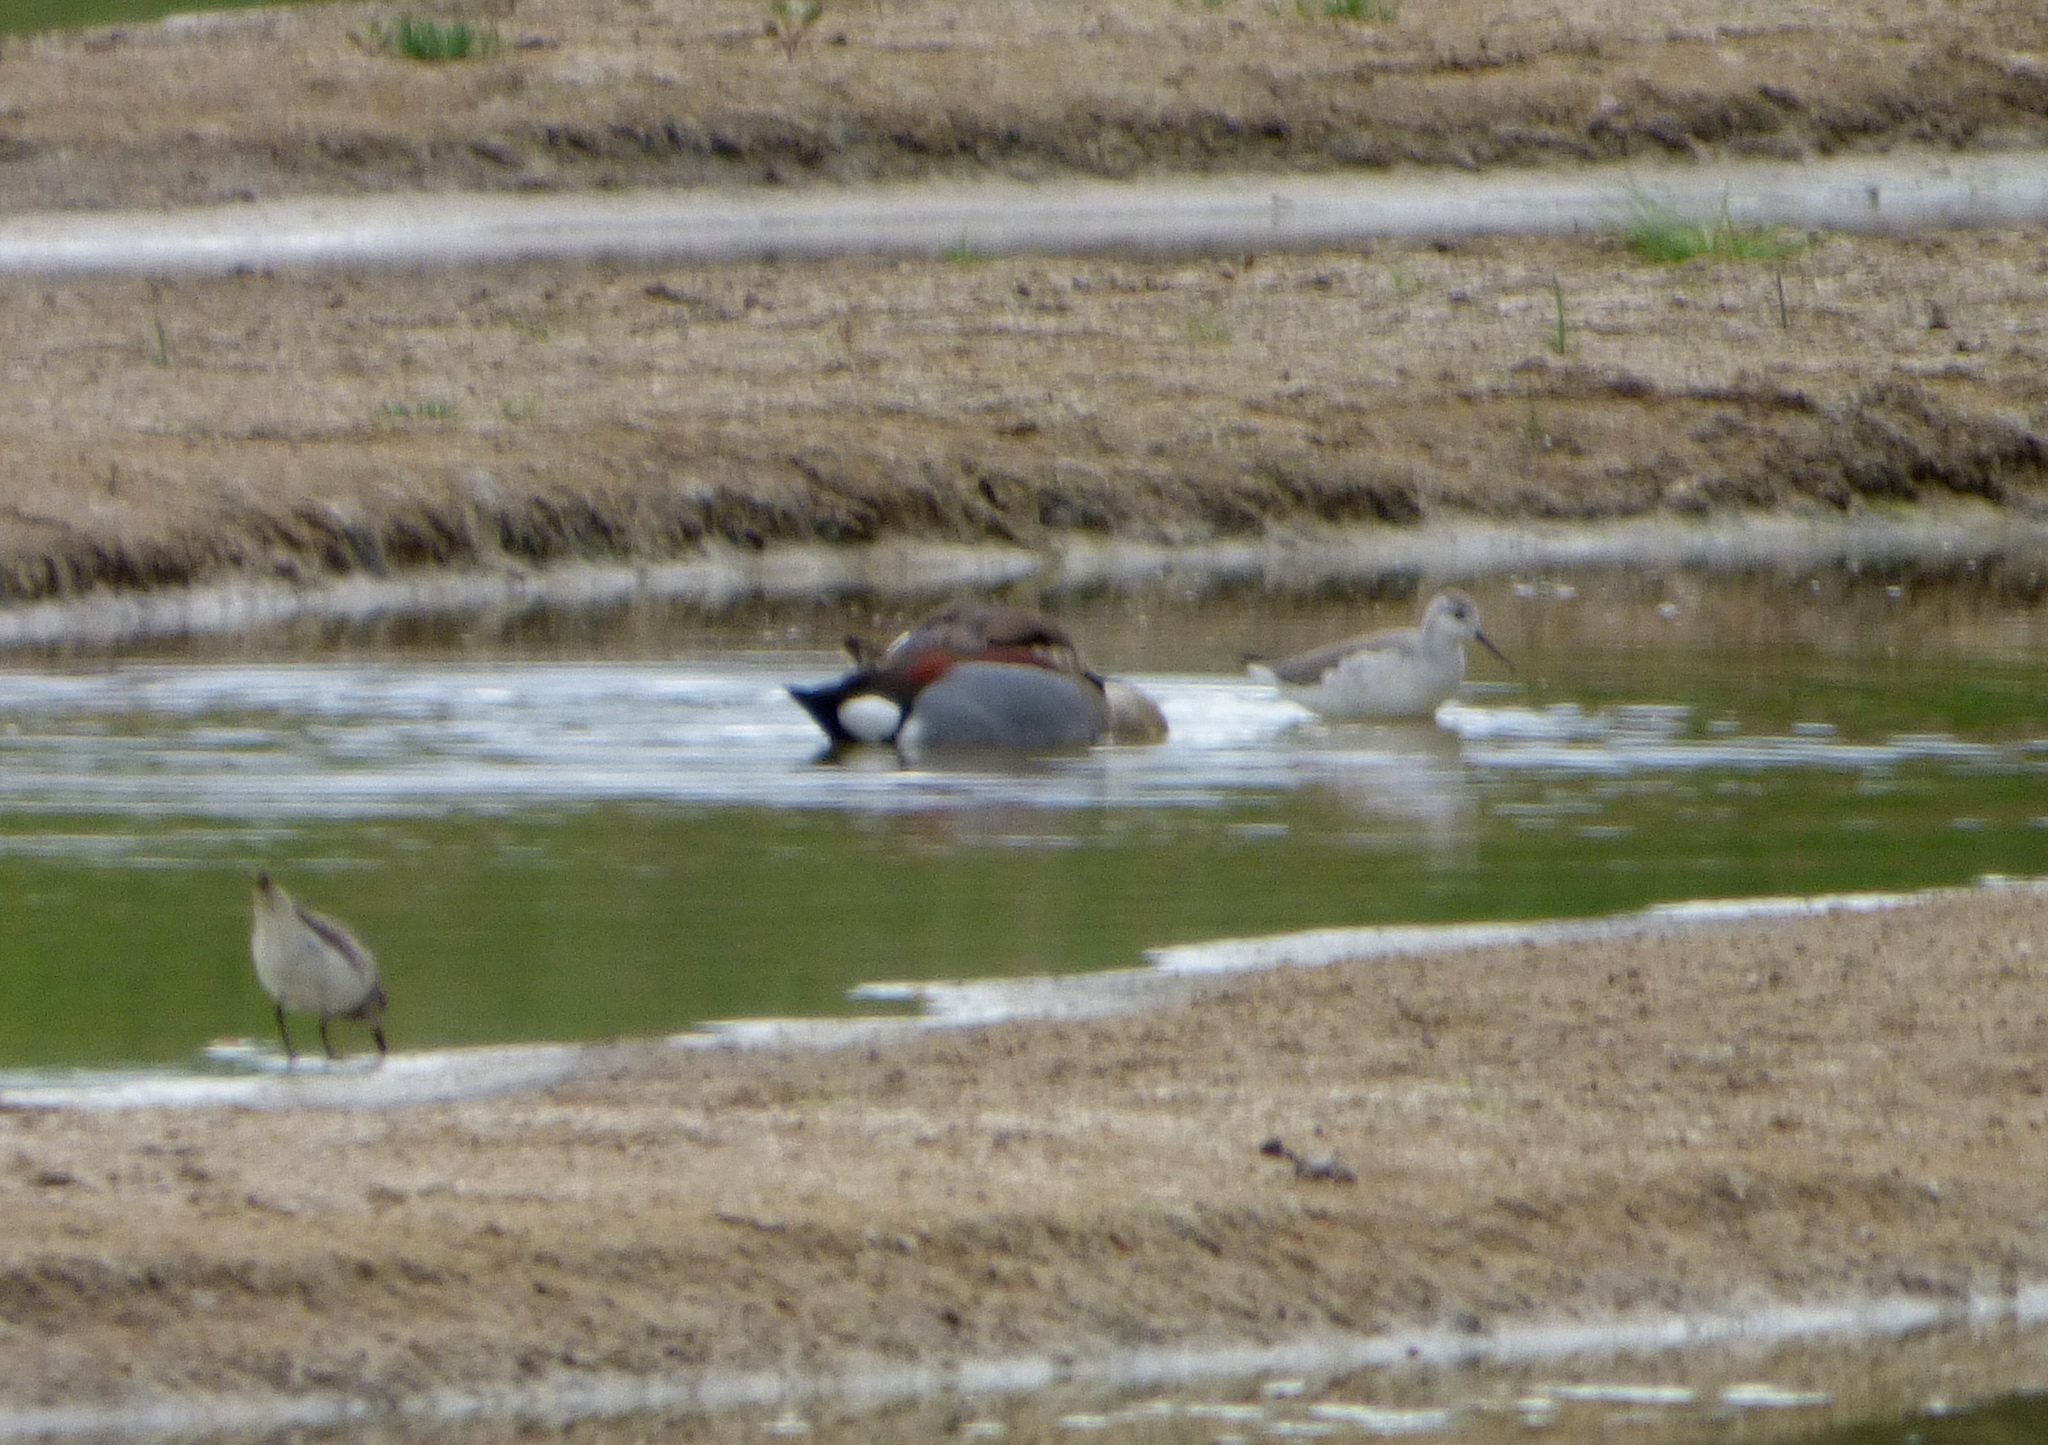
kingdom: Animalia
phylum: Chordata
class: Aves
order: Charadriiformes
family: Scolopacidae
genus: Phalaropus
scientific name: Phalaropus tricolor
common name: Wilson's phalarope
